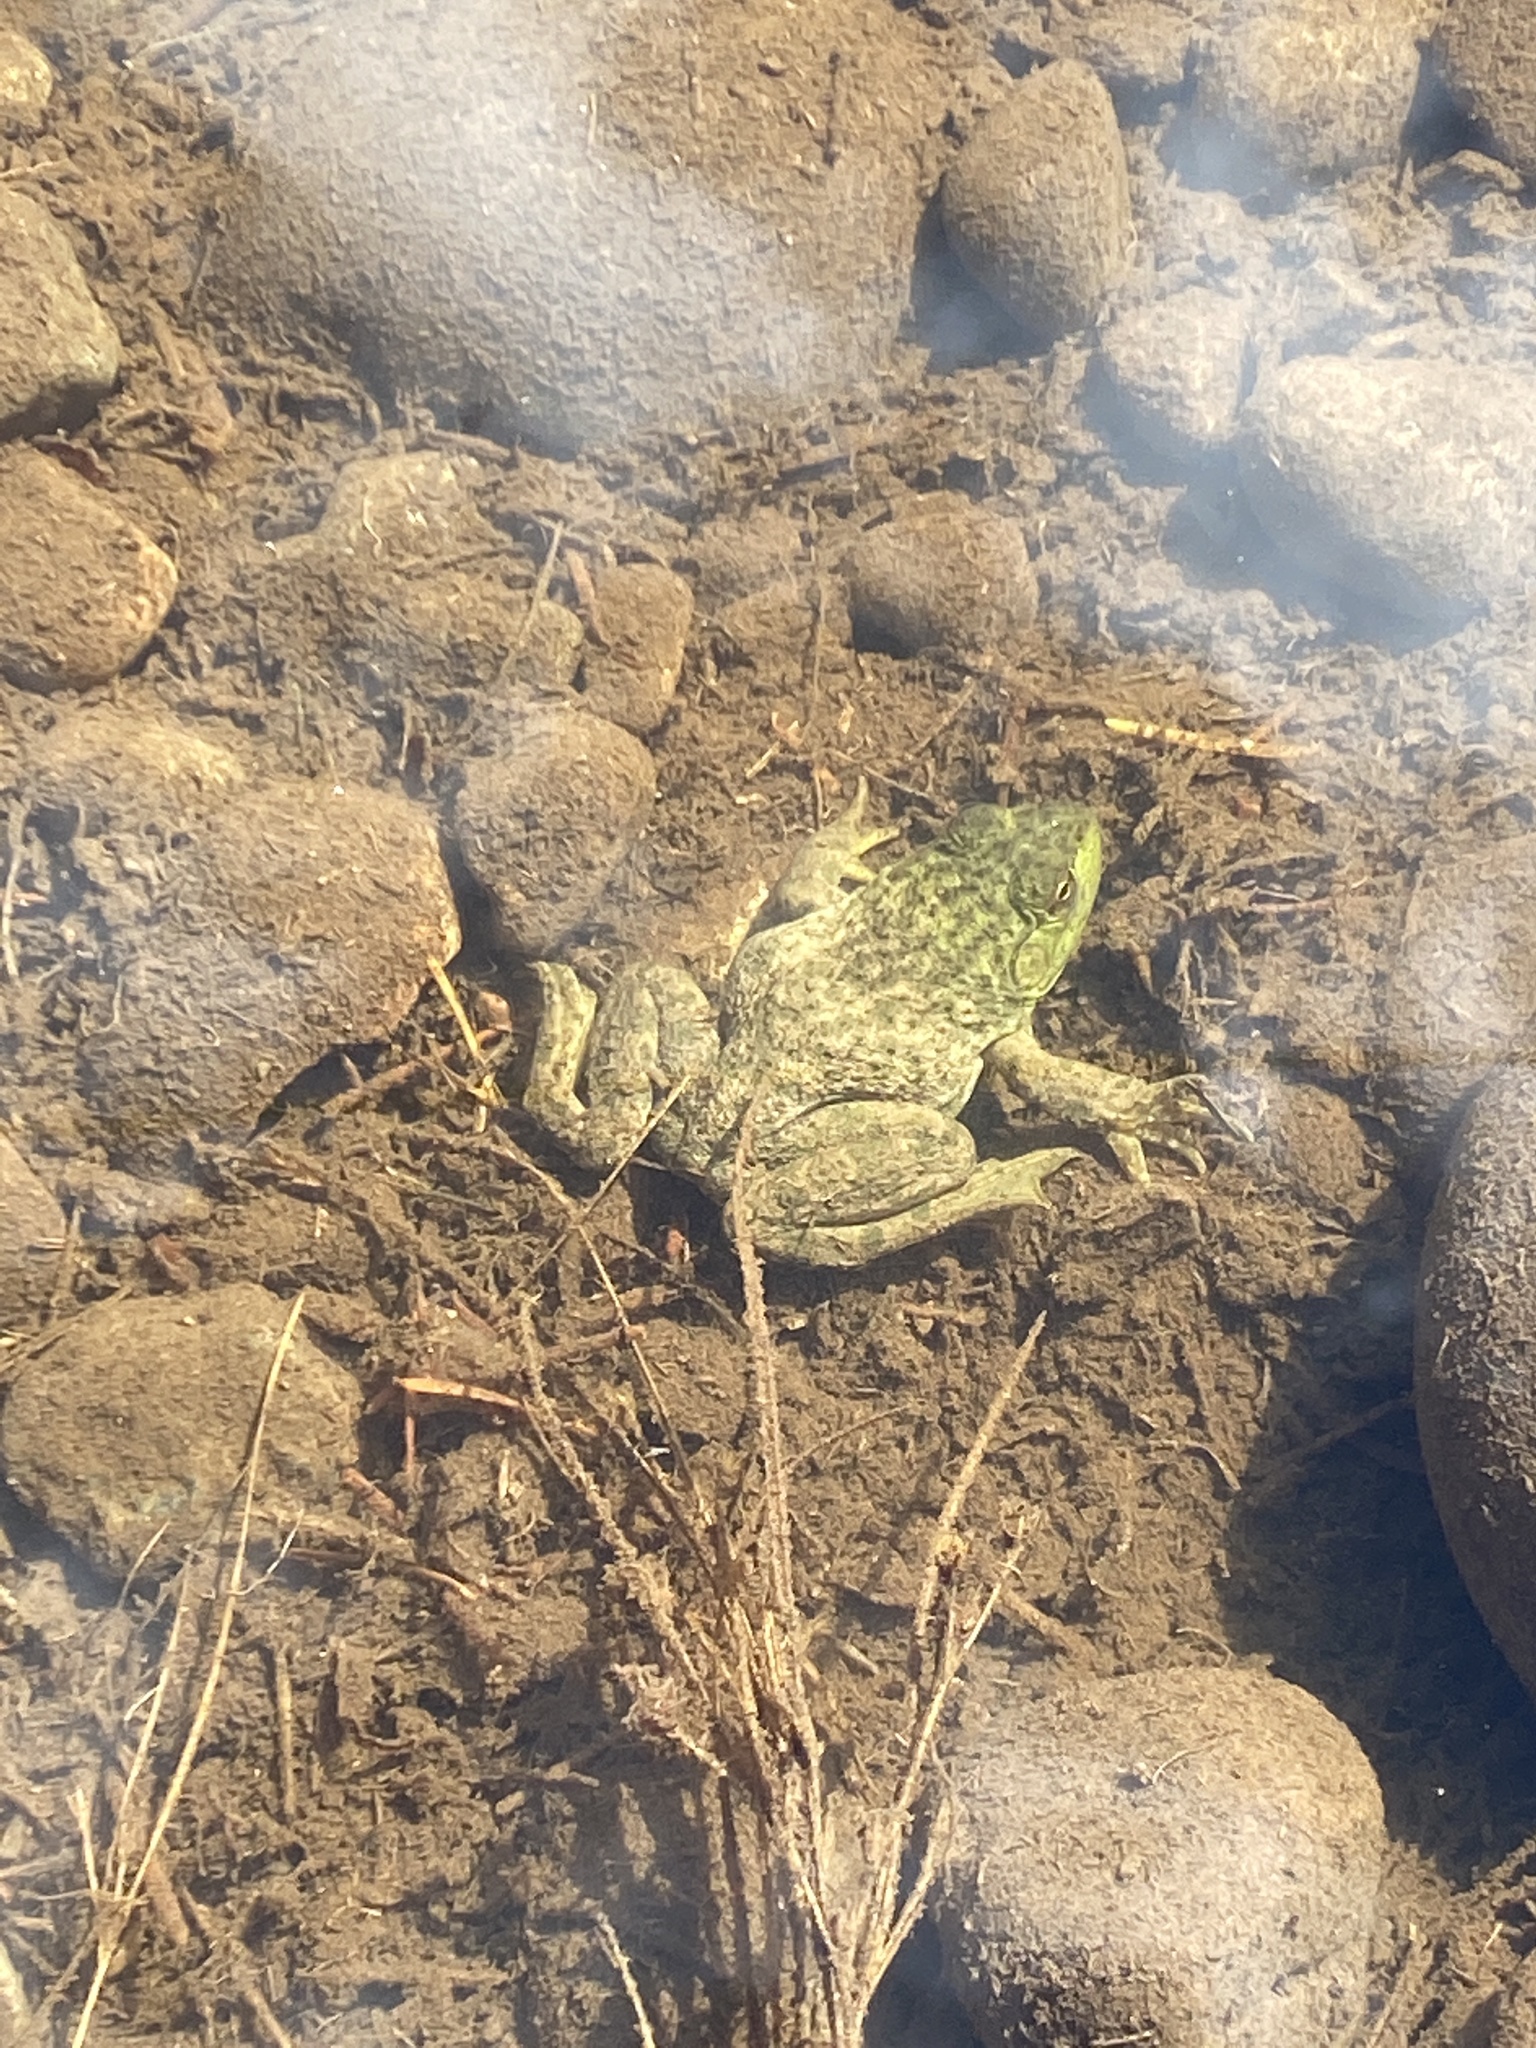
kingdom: Animalia
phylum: Chordata
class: Amphibia
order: Anura
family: Ranidae
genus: Lithobates
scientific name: Lithobates catesbeianus
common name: American bullfrog
